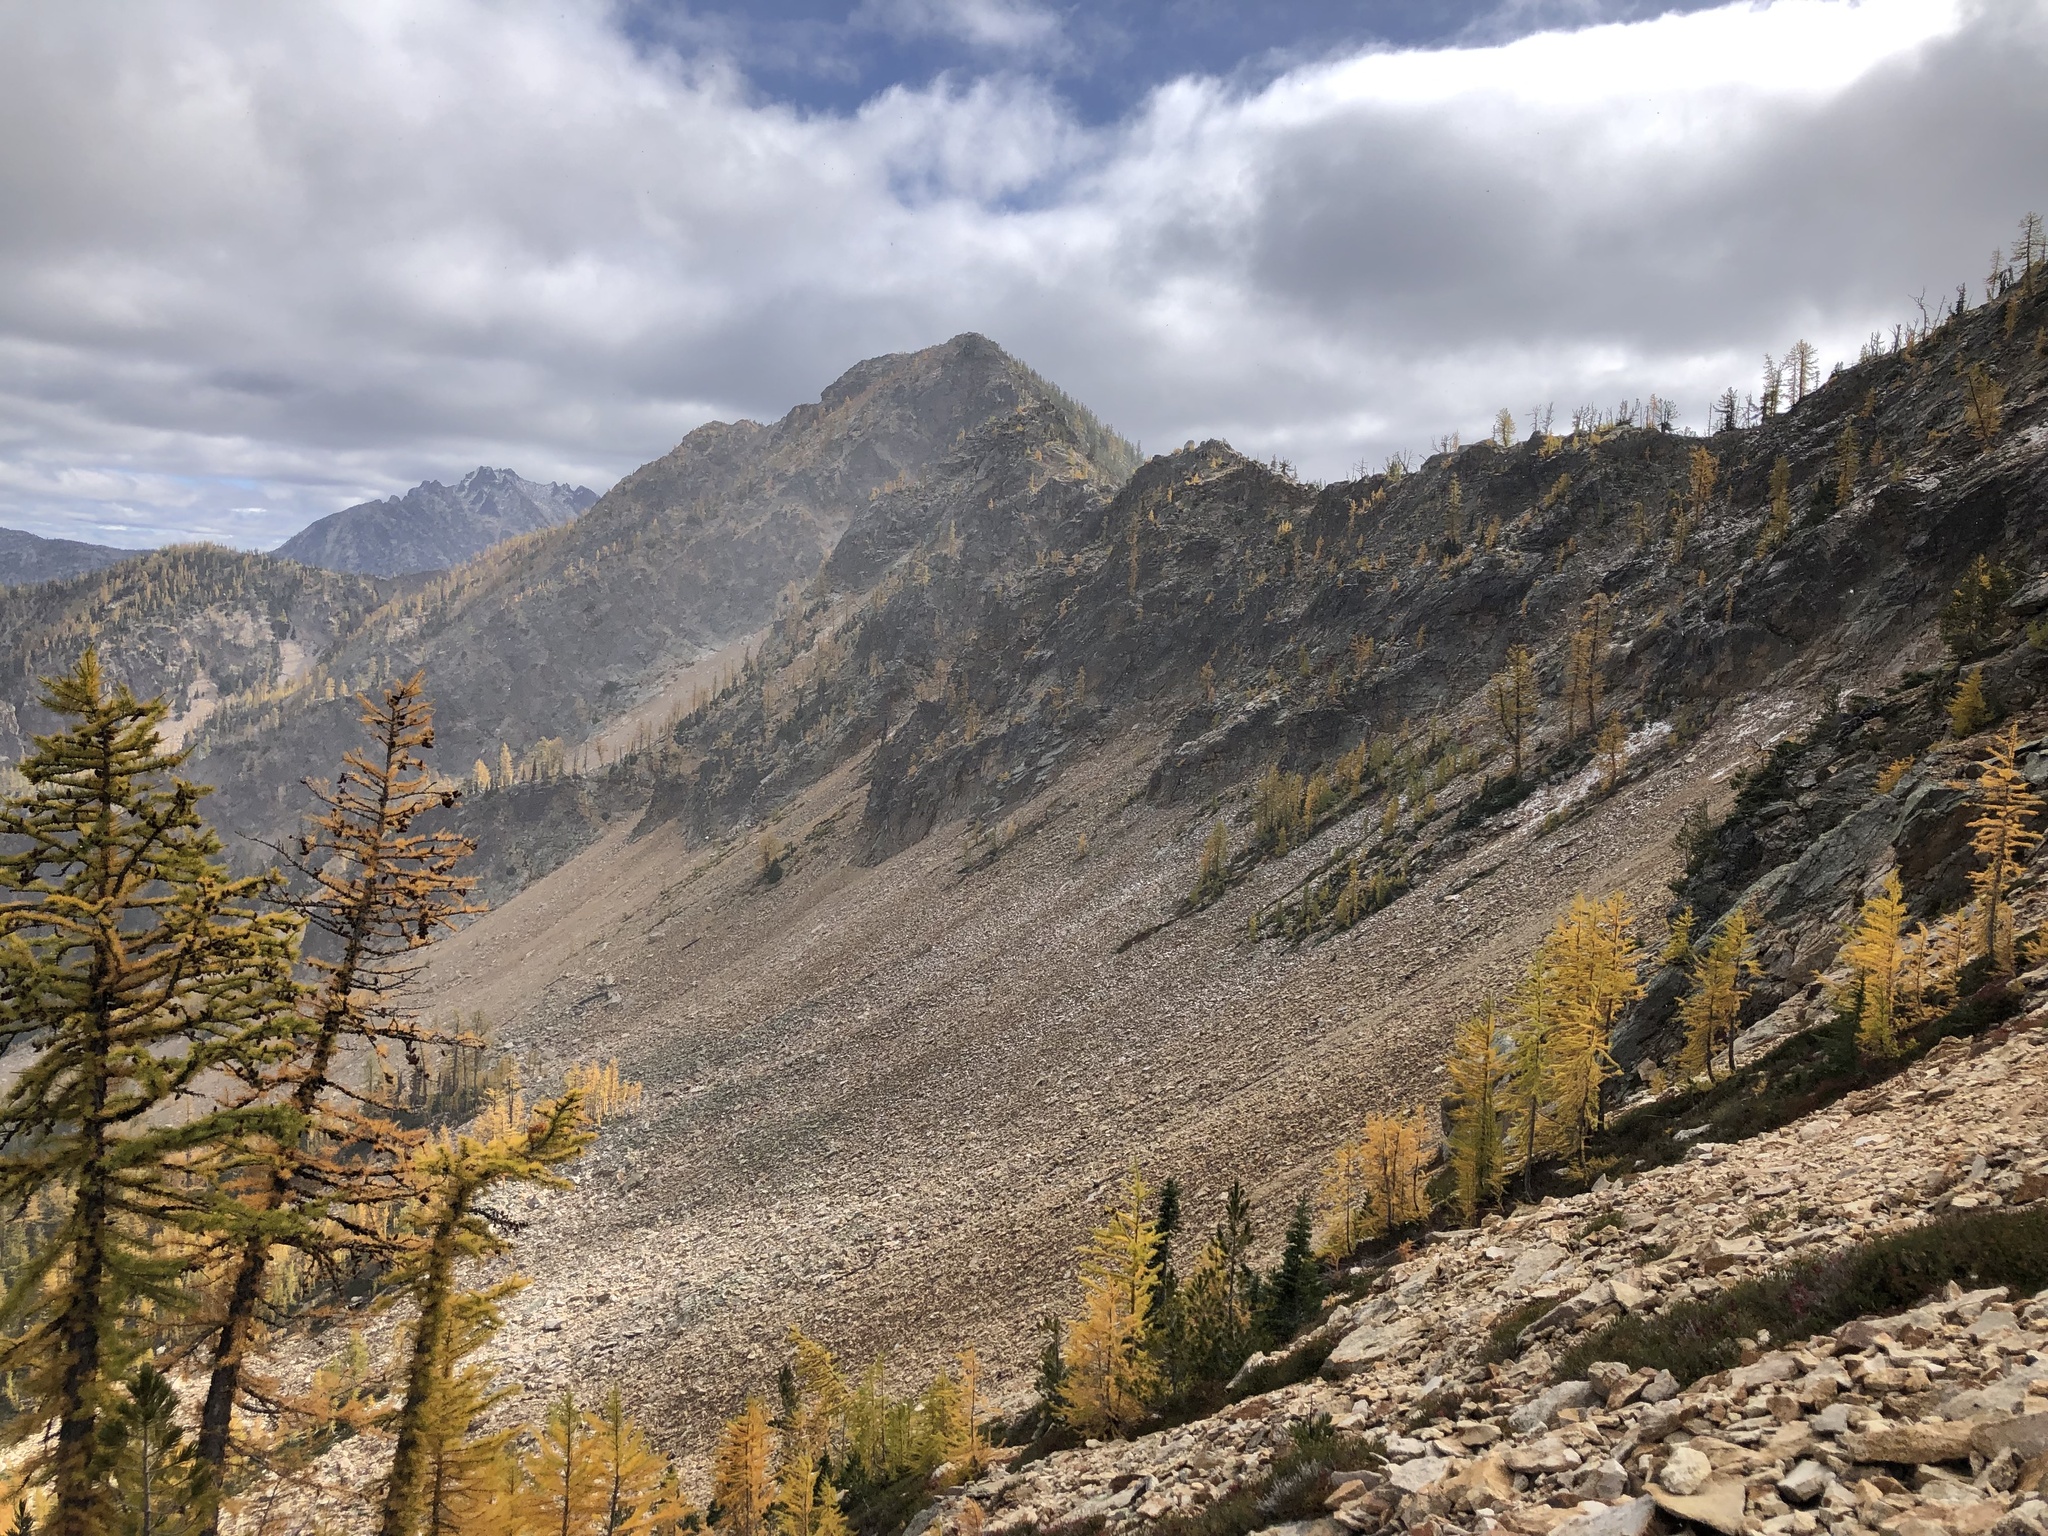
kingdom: Plantae
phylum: Tracheophyta
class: Pinopsida
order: Pinales
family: Pinaceae
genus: Larix
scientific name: Larix lyallii
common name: Alpine larch
